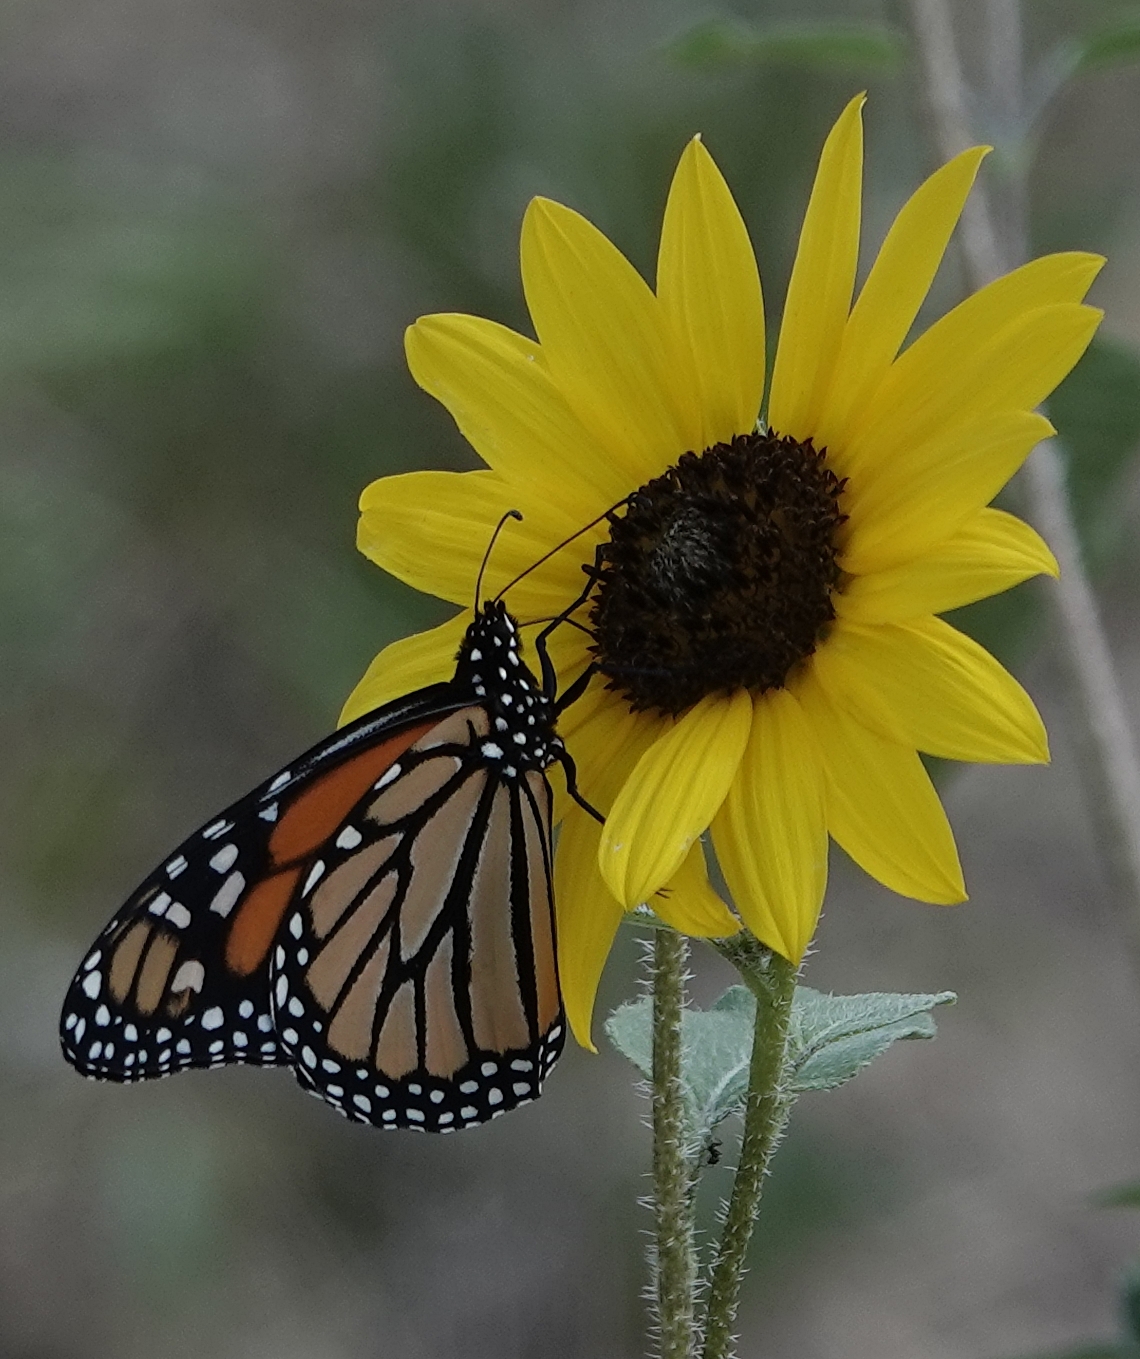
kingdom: Animalia
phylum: Arthropoda
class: Insecta
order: Lepidoptera
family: Nymphalidae
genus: Danaus
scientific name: Danaus plexippus
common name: Monarch
